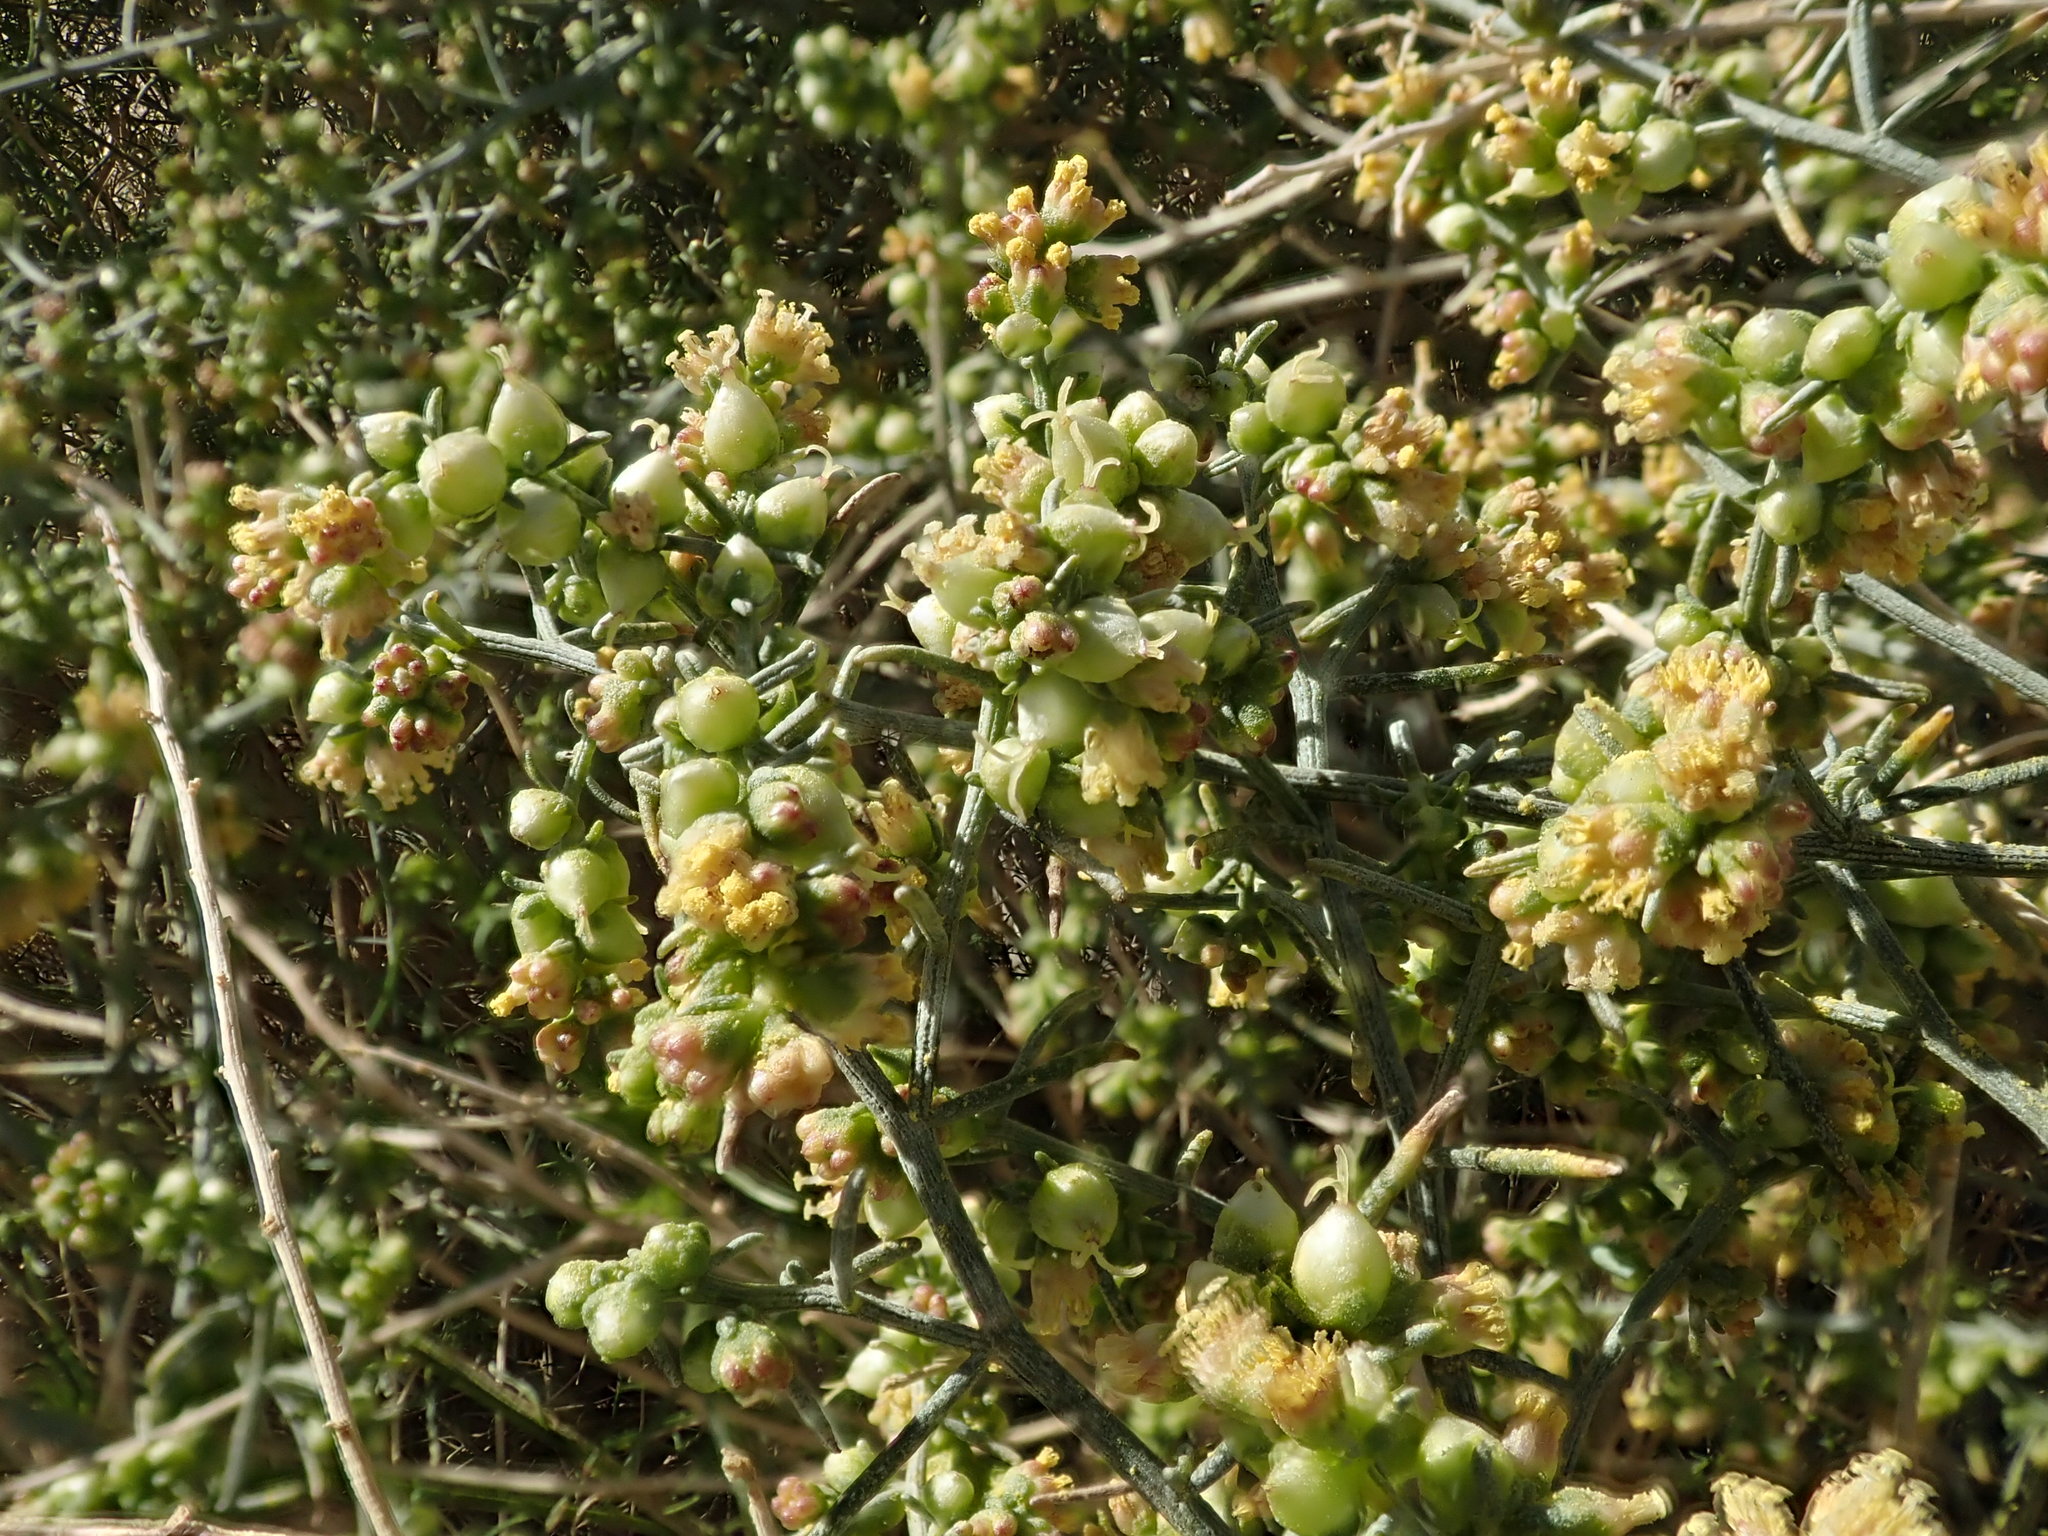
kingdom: Plantae
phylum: Tracheophyta
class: Magnoliopsida
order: Asterales
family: Asteraceae
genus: Ambrosia
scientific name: Ambrosia salsola
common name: Burrobrush
